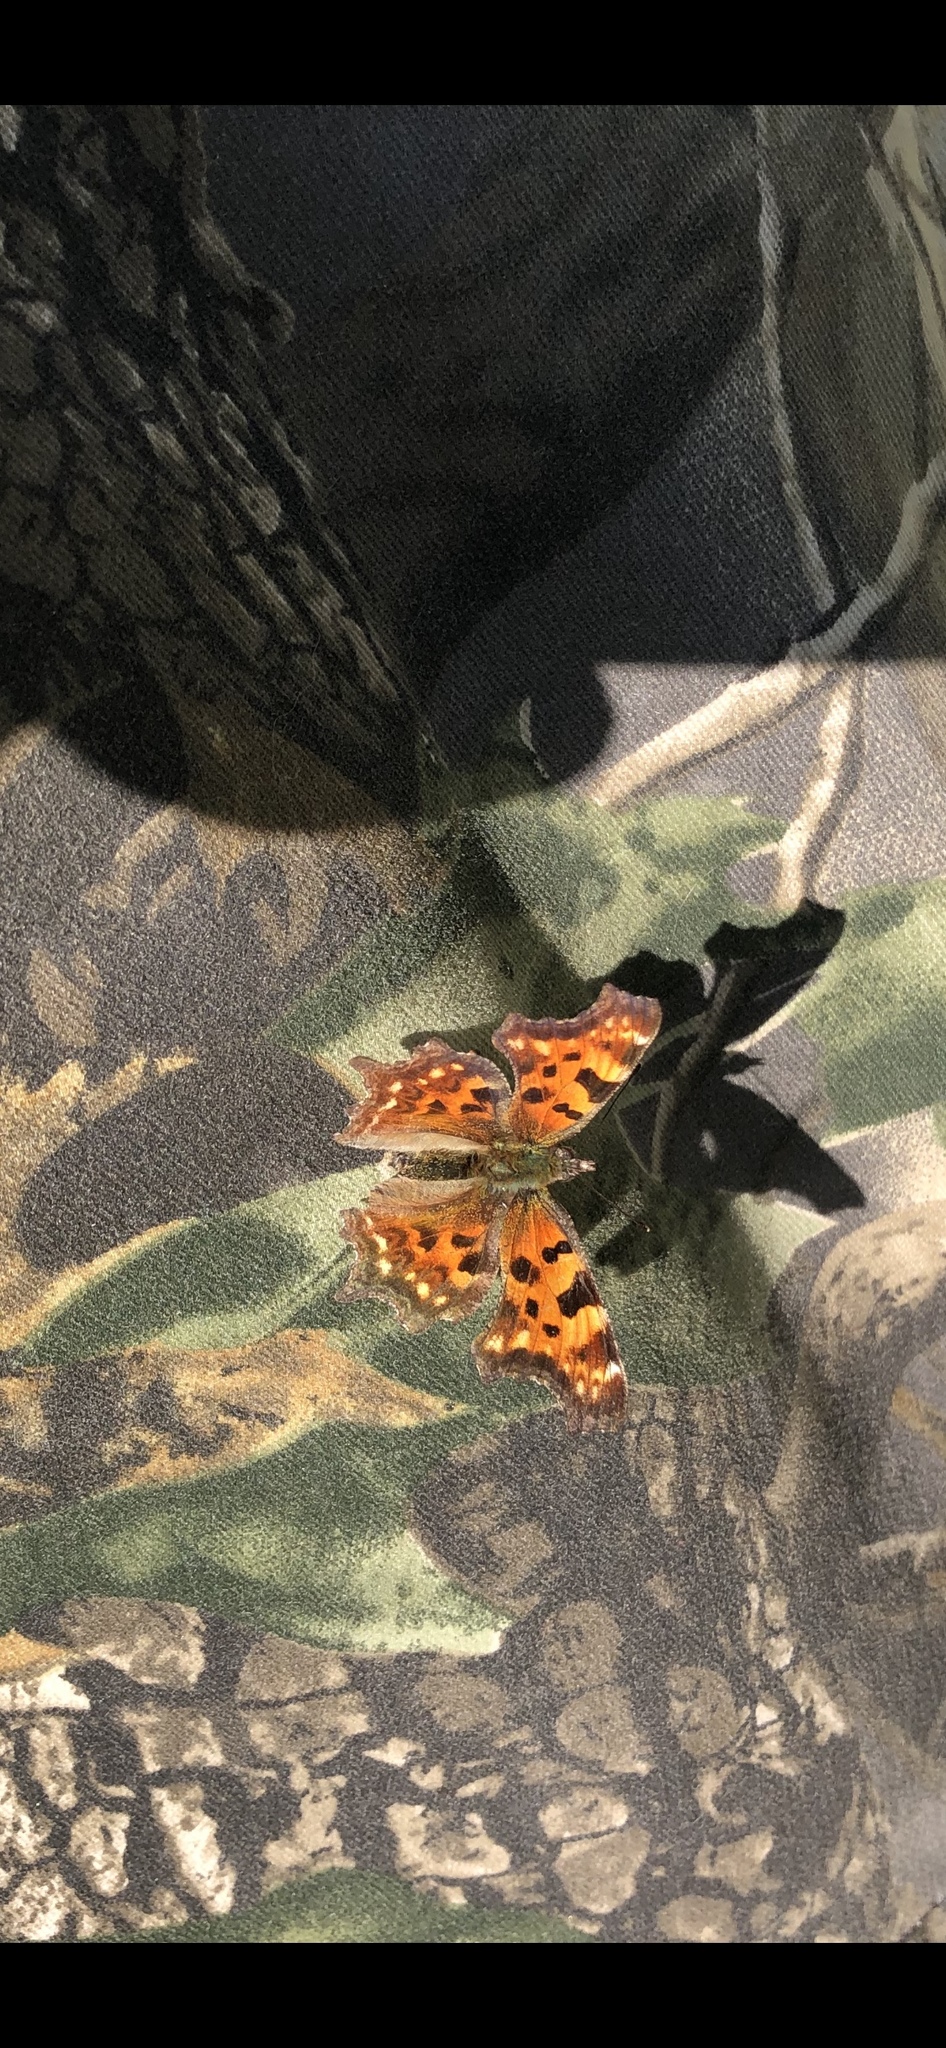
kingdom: Animalia
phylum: Arthropoda
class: Insecta
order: Lepidoptera
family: Nymphalidae
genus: Polygonia
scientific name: Polygonia c-album
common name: Comma
